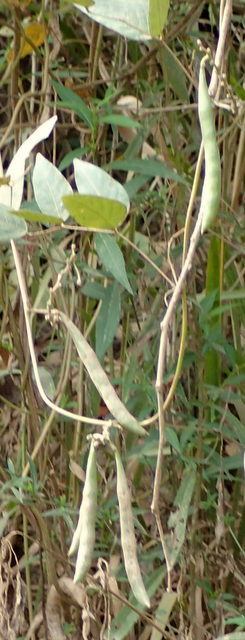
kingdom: Plantae
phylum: Tracheophyta
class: Magnoliopsida
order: Fabales
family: Fabaceae
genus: Apios
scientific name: Apios americana
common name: American potato-bean
